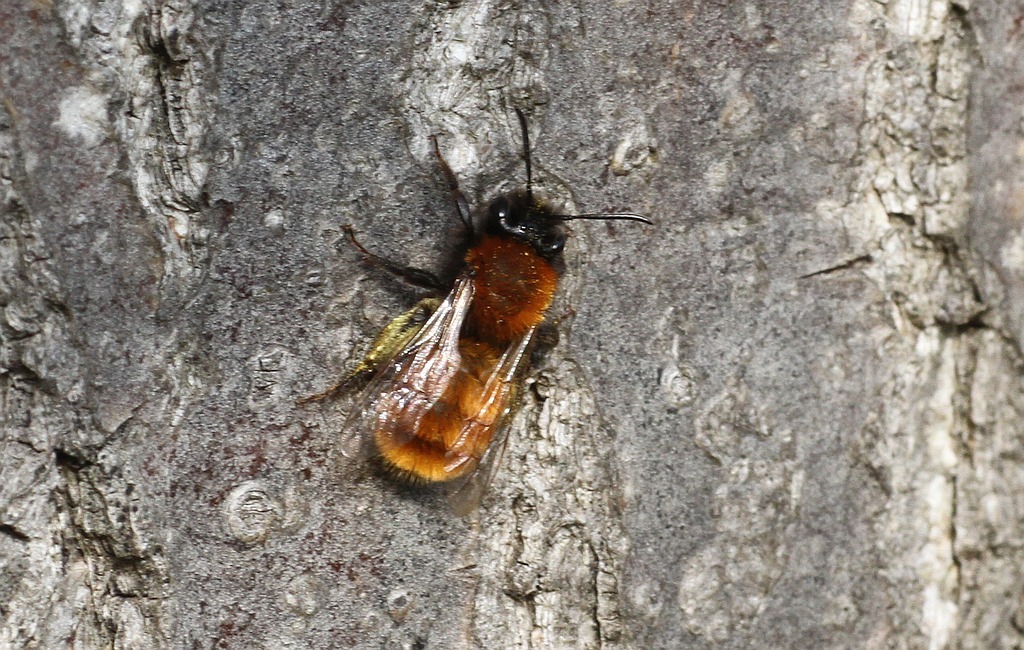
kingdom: Animalia
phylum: Arthropoda
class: Insecta
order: Hymenoptera
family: Andrenidae
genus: Andrena
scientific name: Andrena fulva
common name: Tawny mining bee
